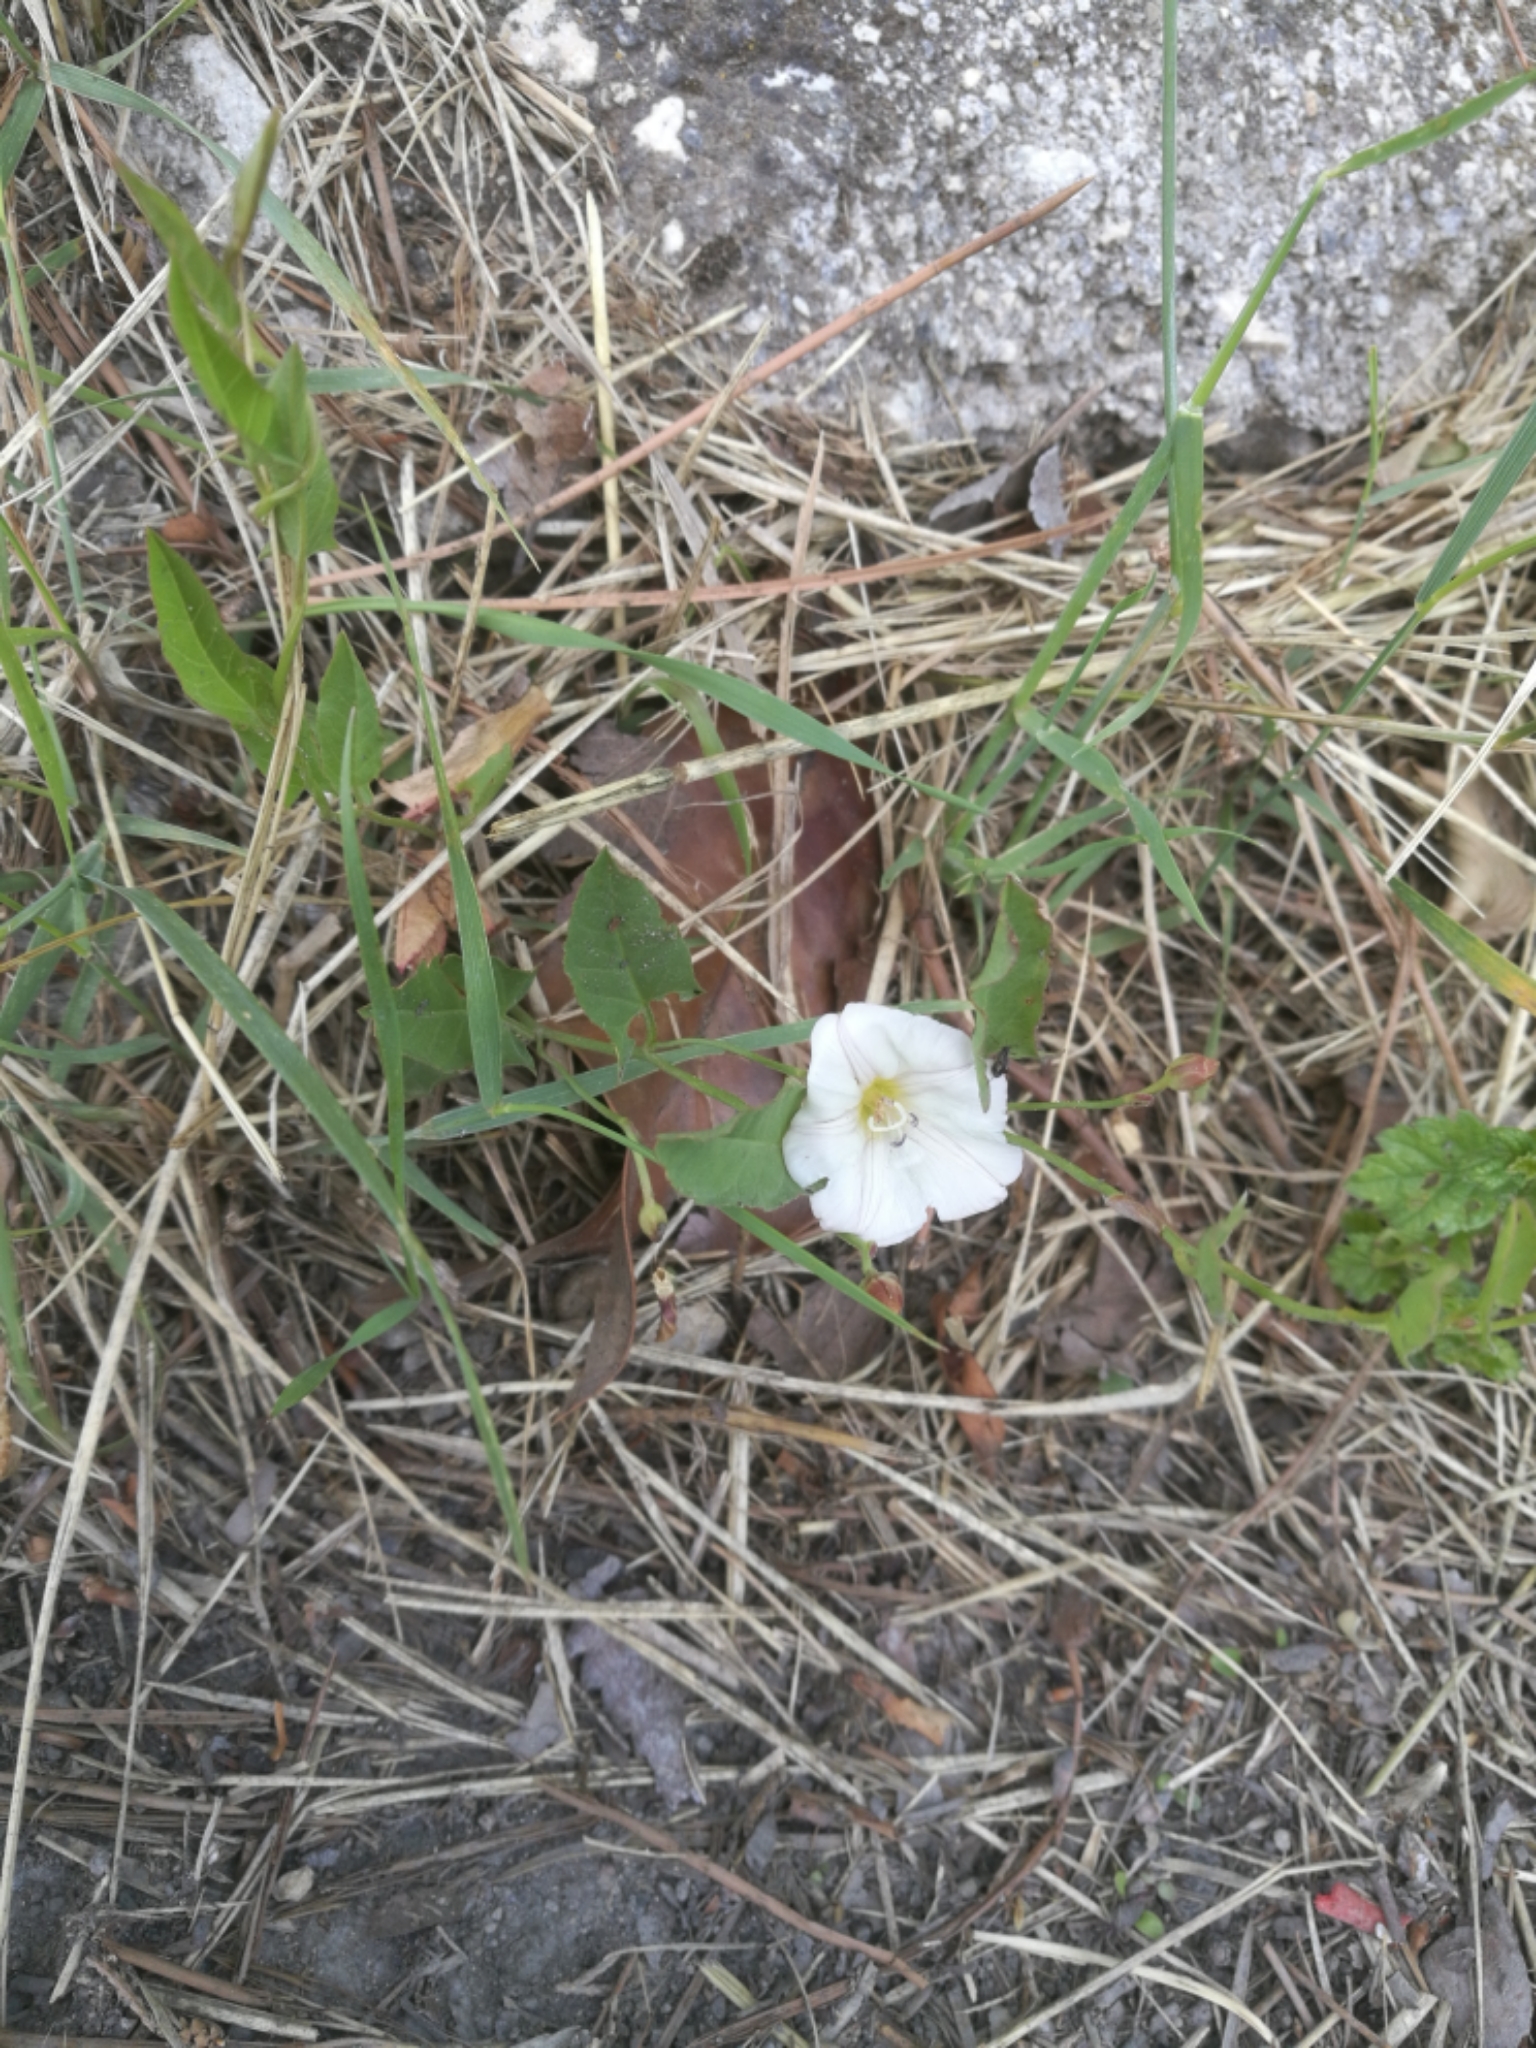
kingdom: Plantae
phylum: Tracheophyta
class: Magnoliopsida
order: Solanales
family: Convolvulaceae
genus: Convolvulus
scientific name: Convolvulus arvensis
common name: Field bindweed
